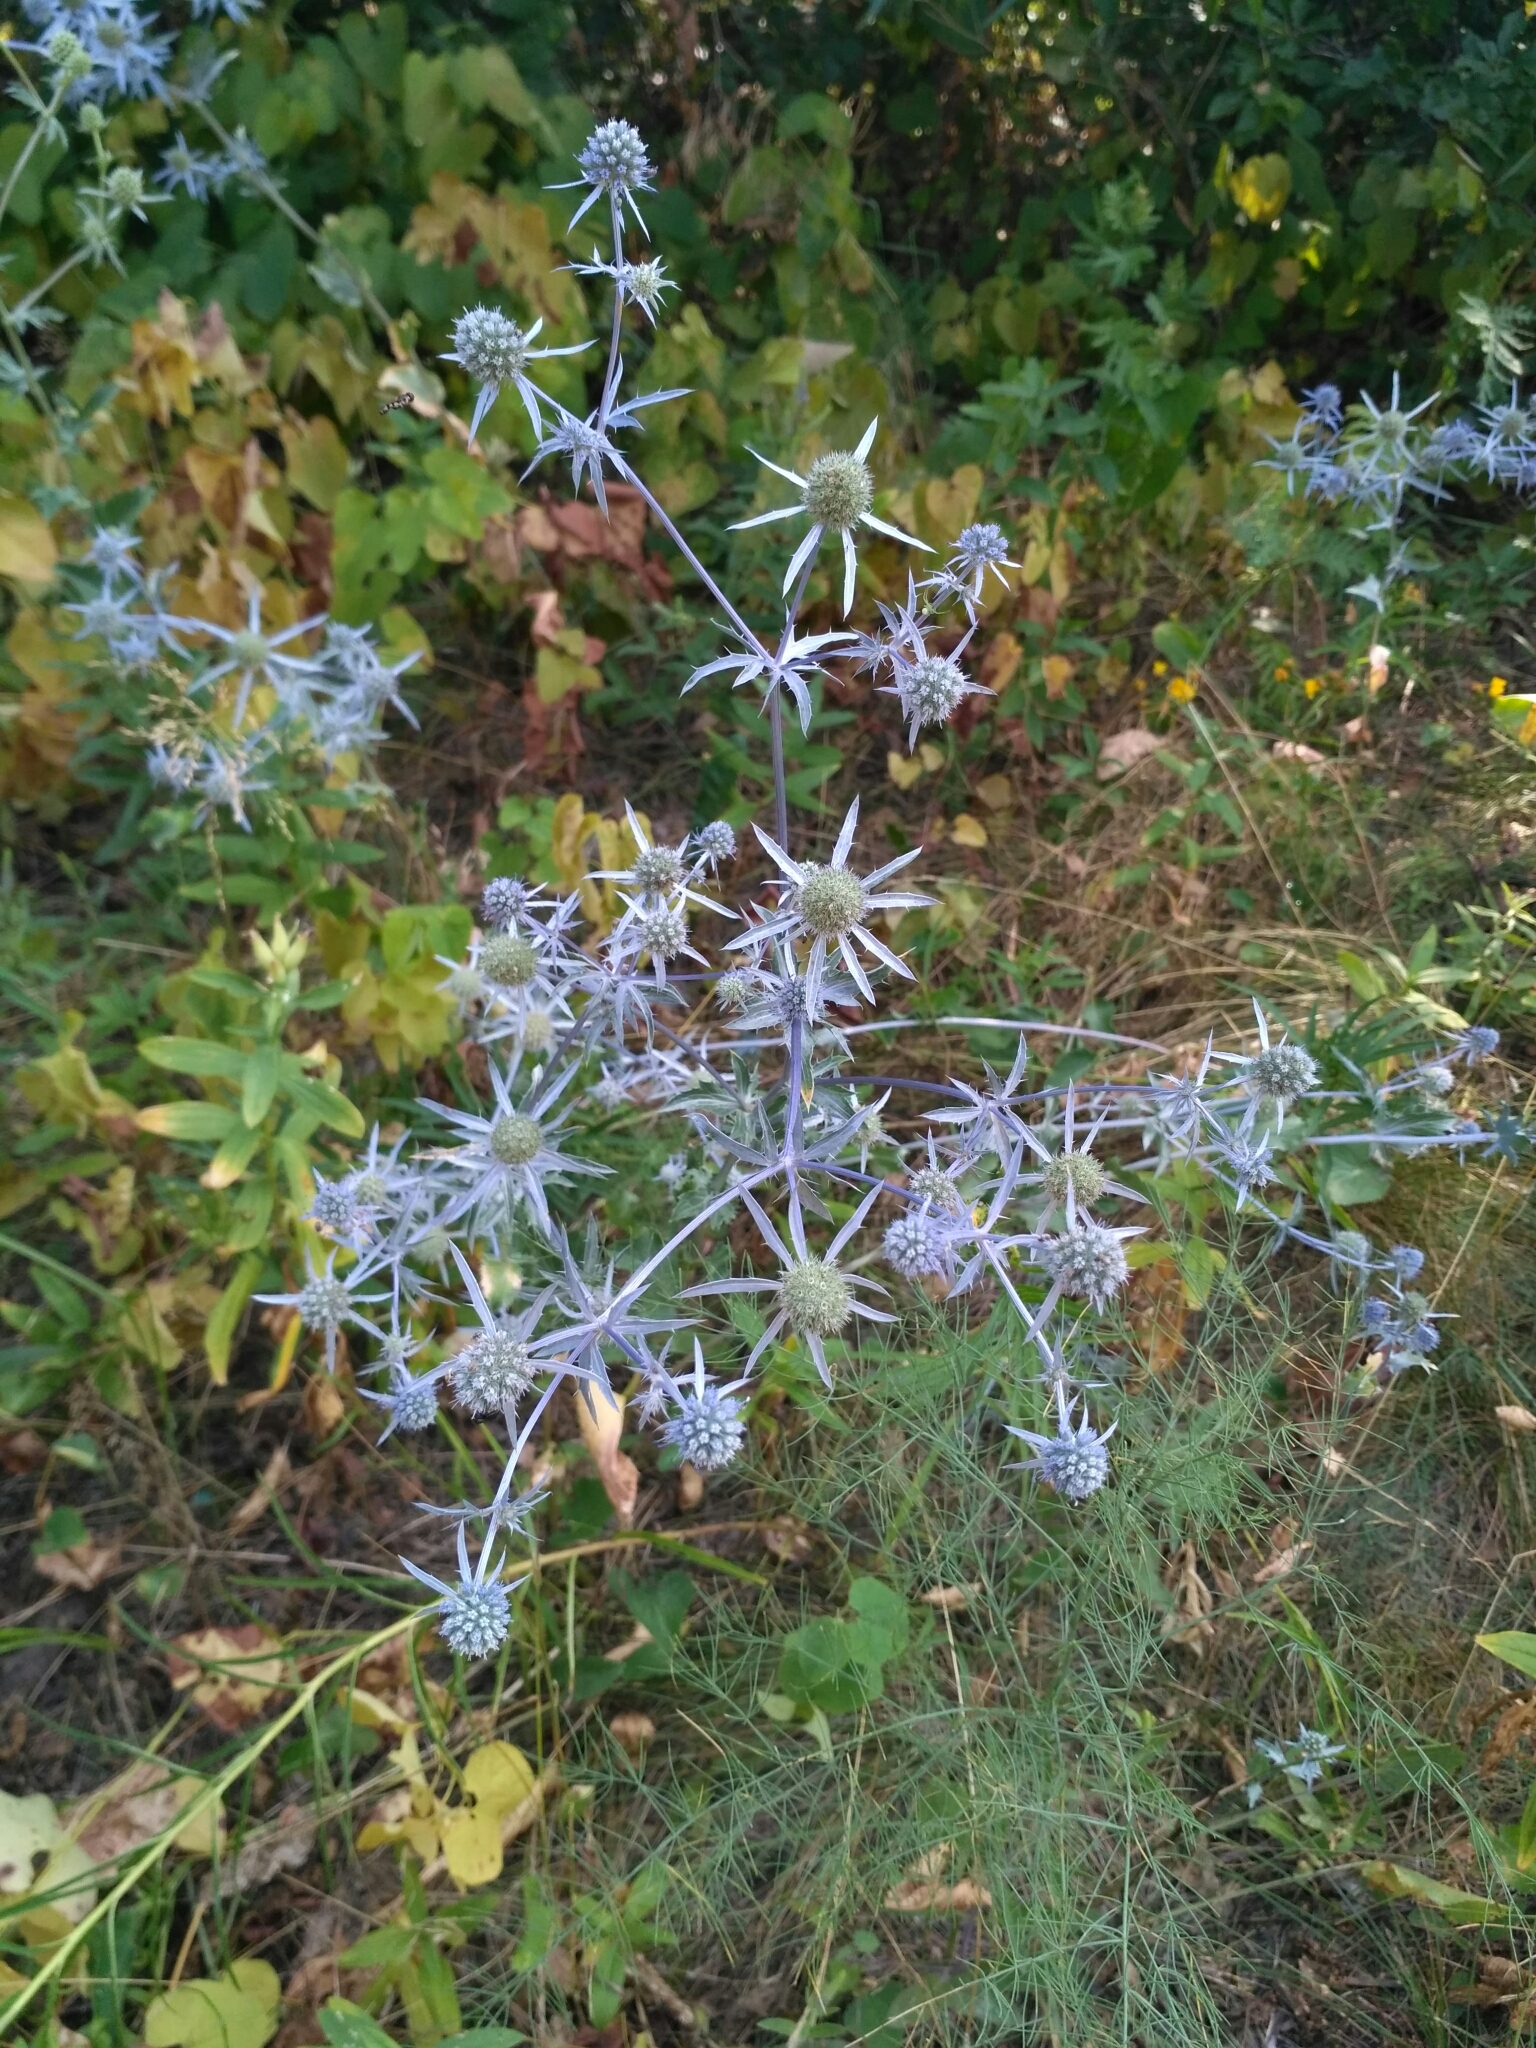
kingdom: Plantae
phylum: Tracheophyta
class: Magnoliopsida
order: Apiales
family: Apiaceae
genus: Eryngium
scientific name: Eryngium planum
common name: Blue eryngo
